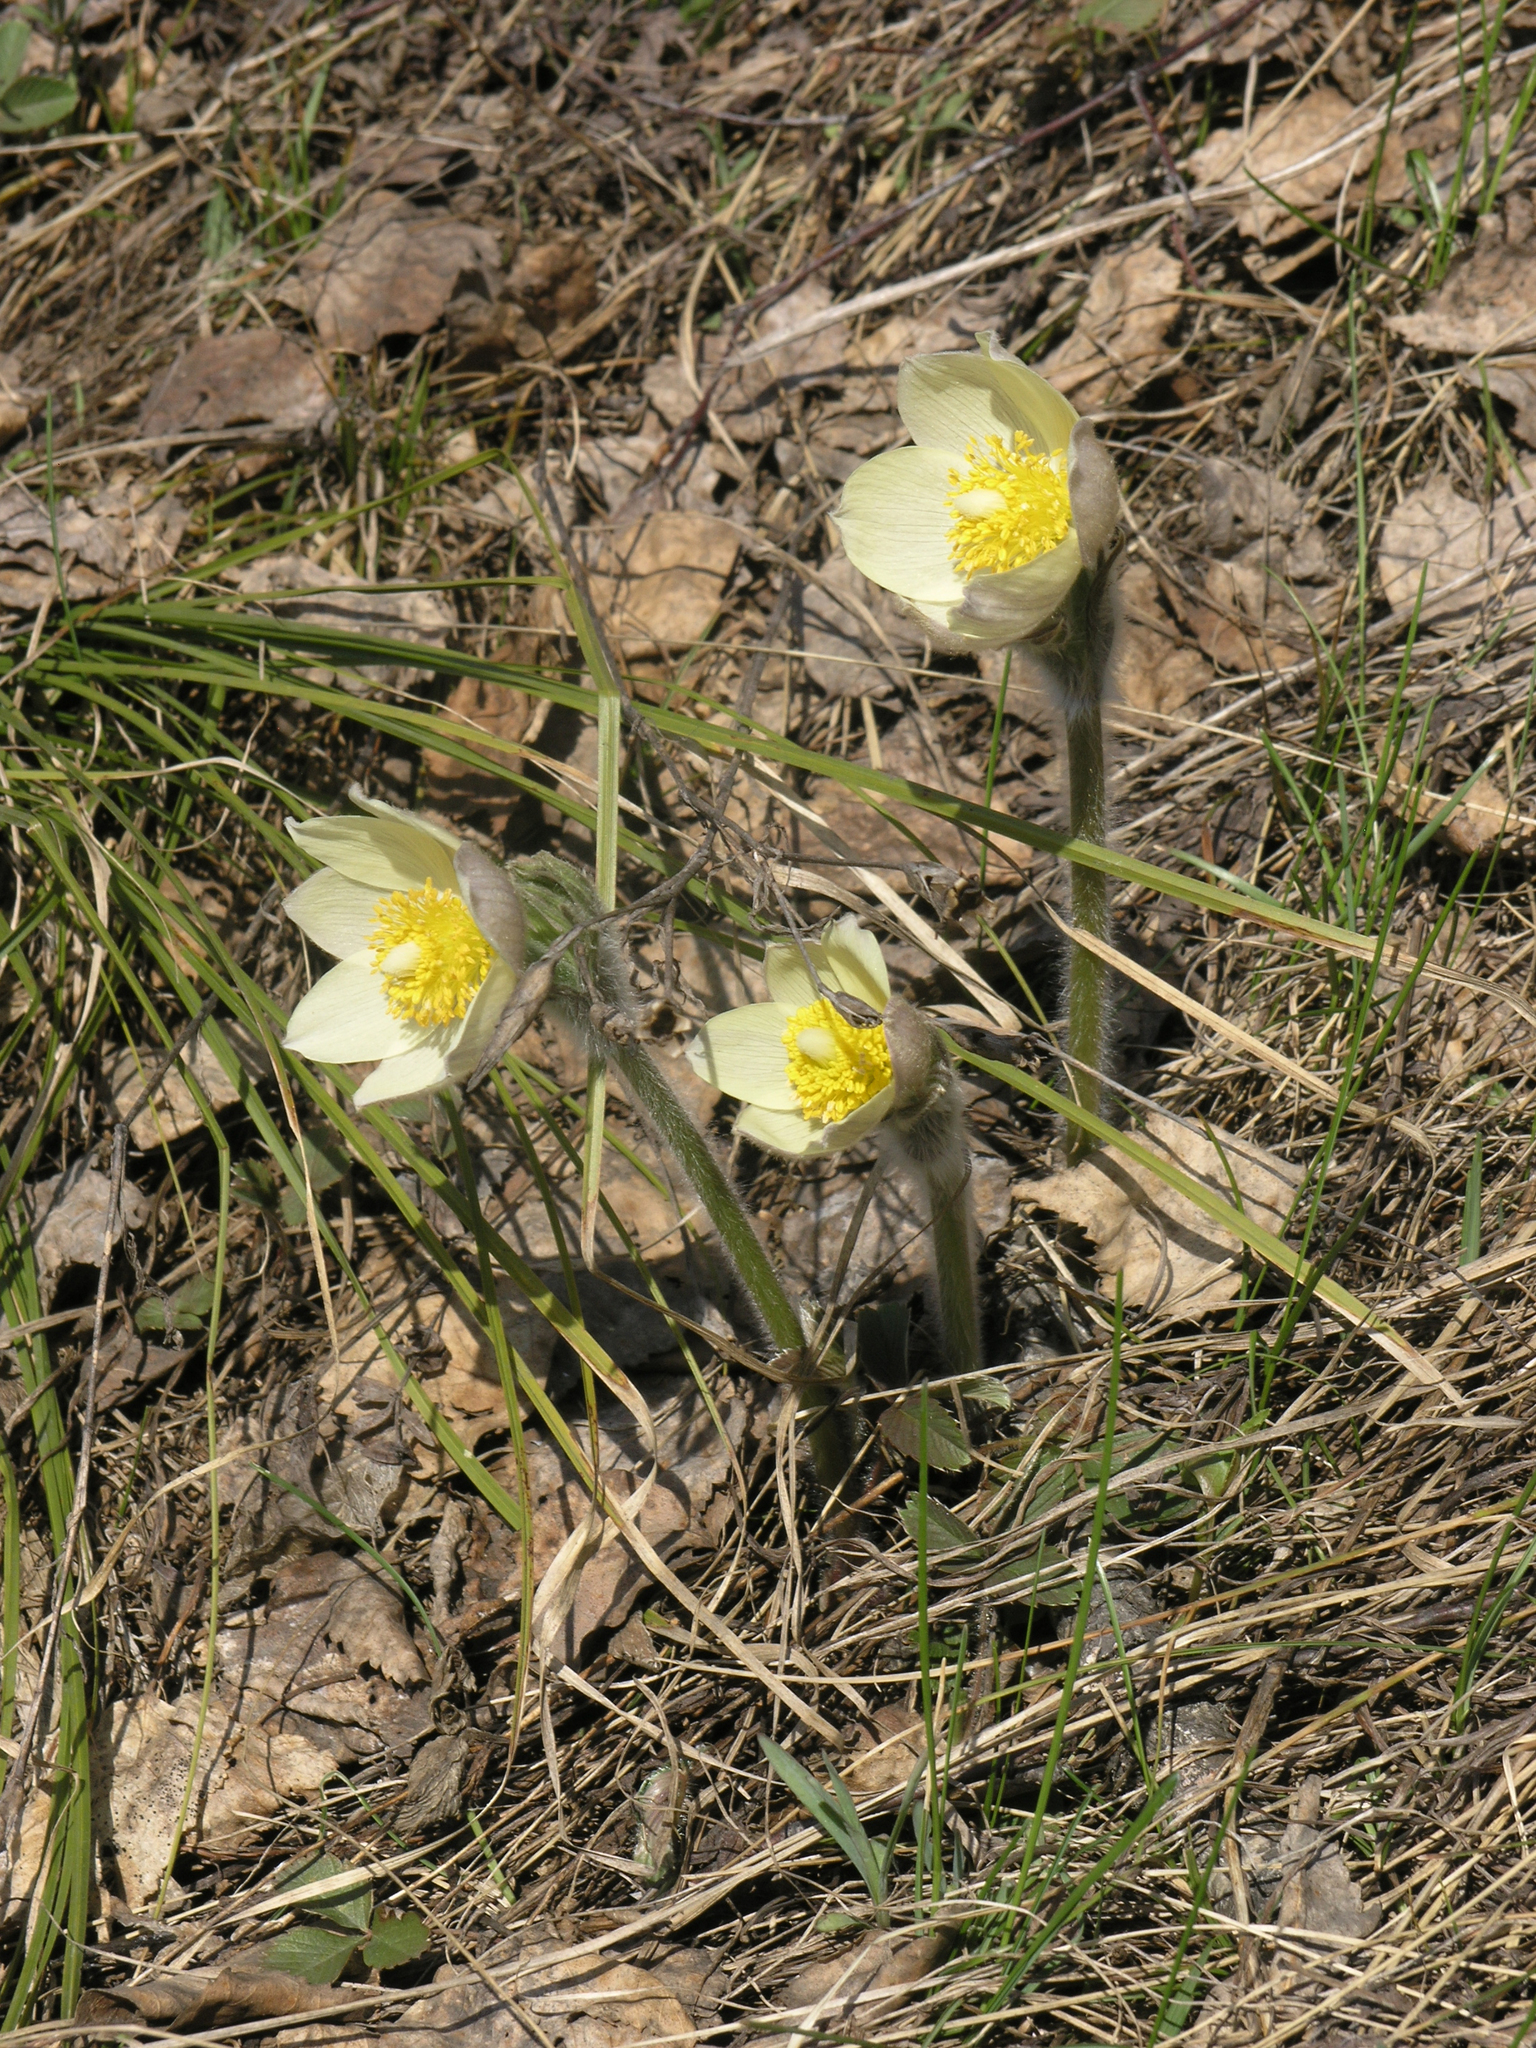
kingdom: Plantae
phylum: Tracheophyta
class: Magnoliopsida
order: Ranunculales
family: Ranunculaceae
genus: Pulsatilla
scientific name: Pulsatilla patens
